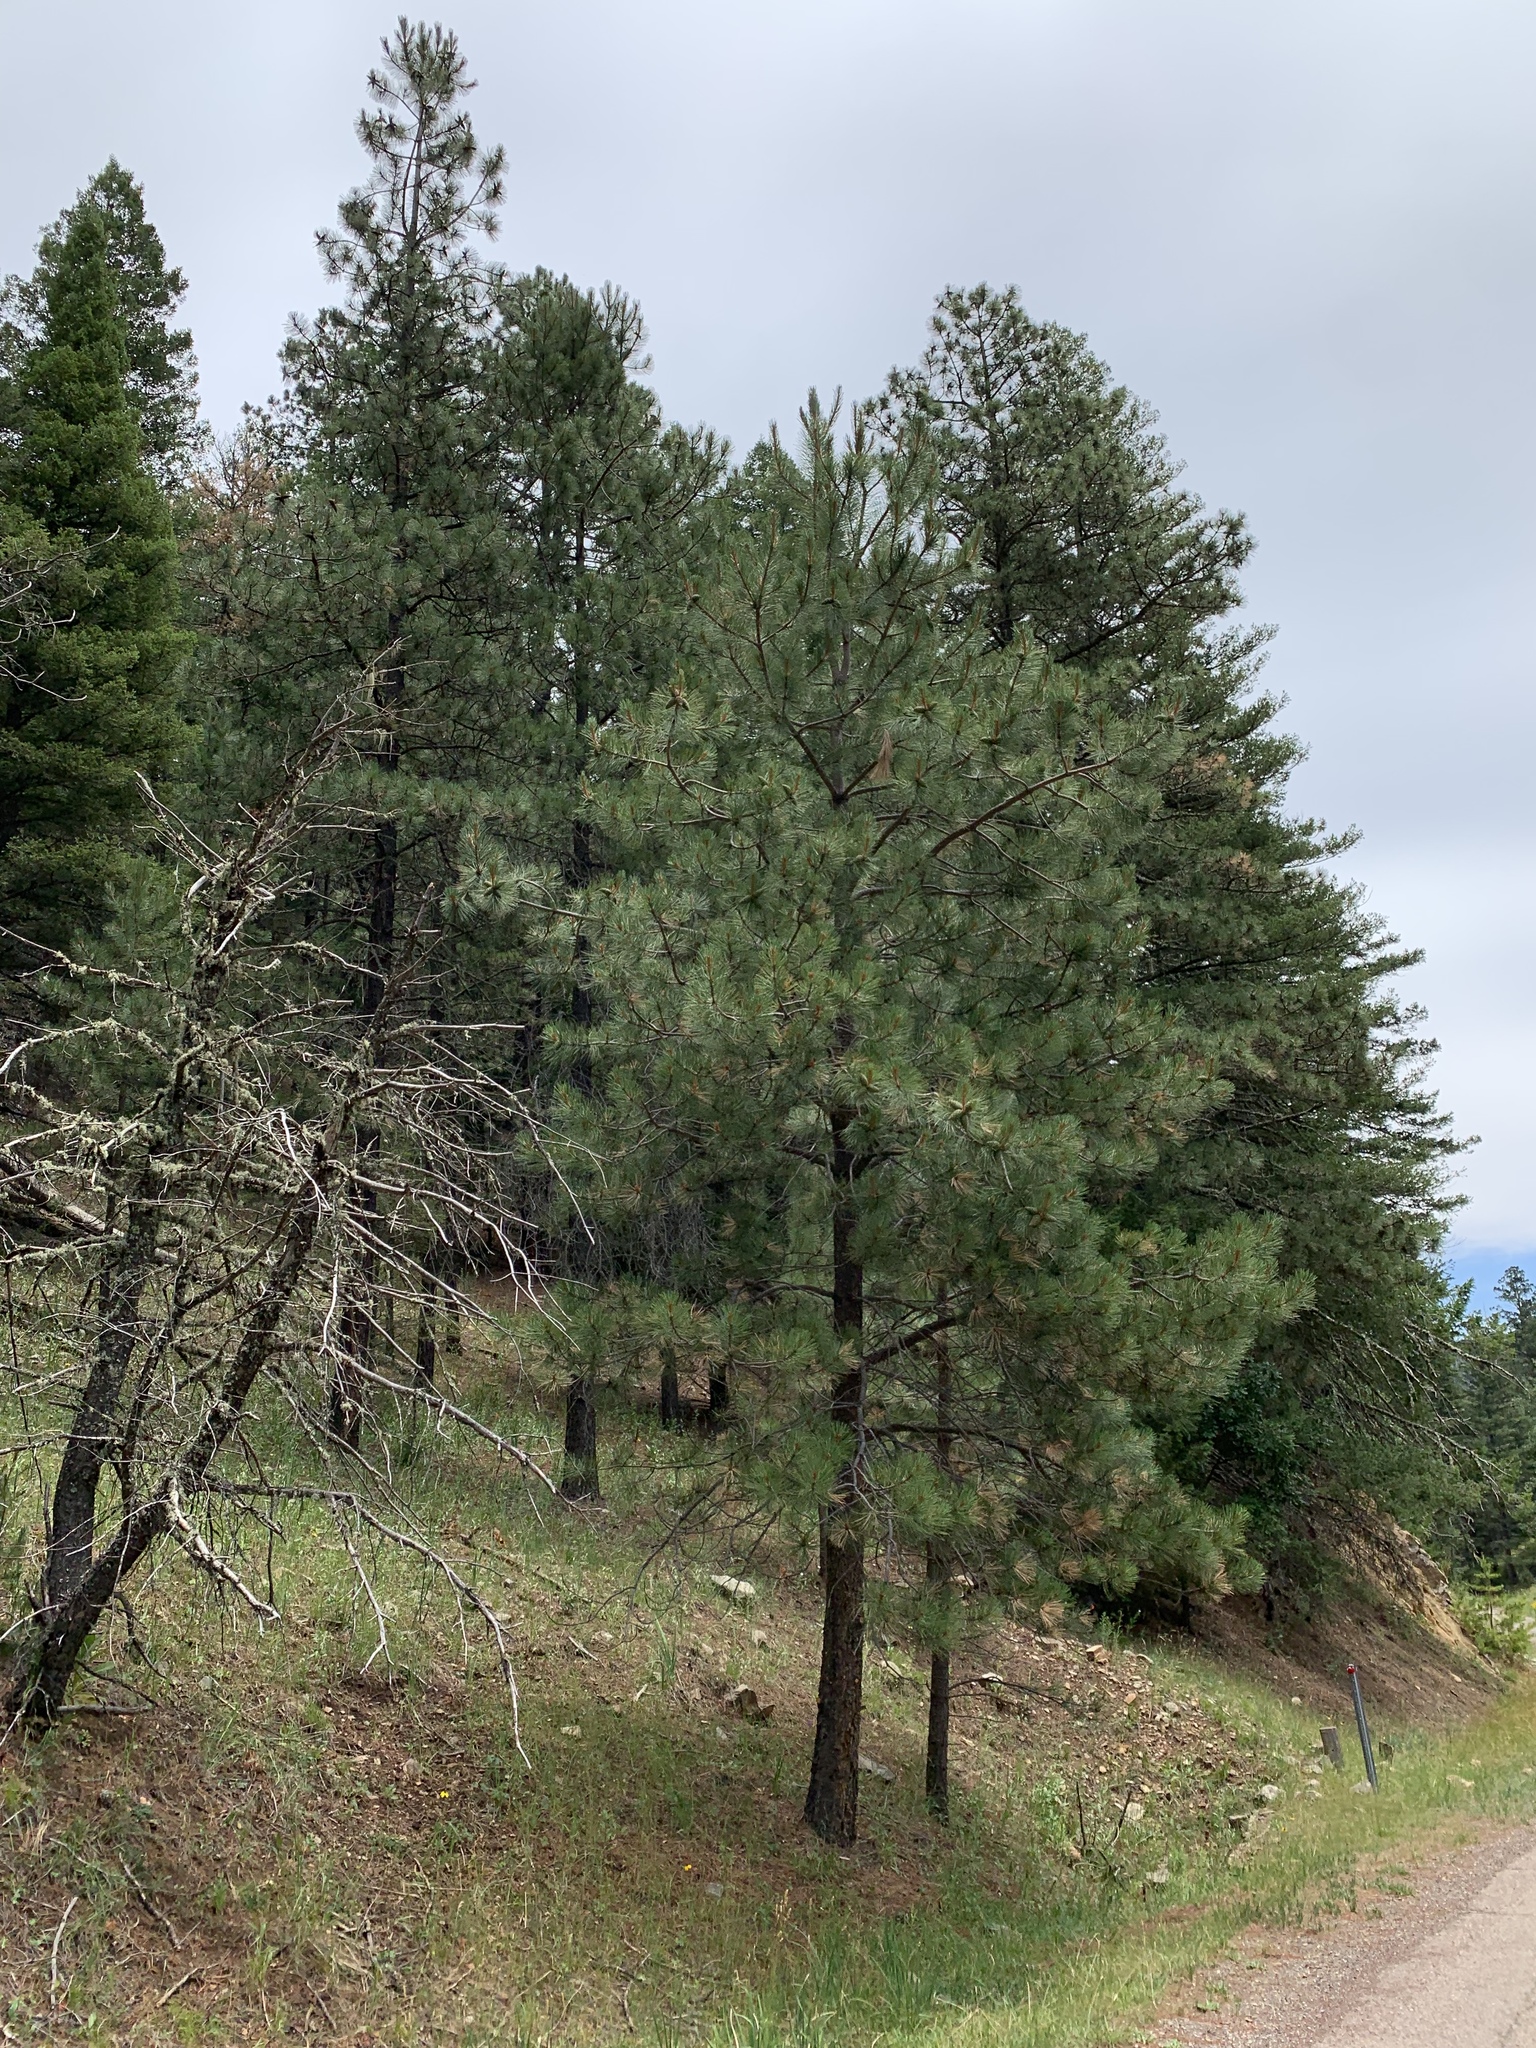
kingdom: Plantae
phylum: Tracheophyta
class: Pinopsida
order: Pinales
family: Pinaceae
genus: Pinus
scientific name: Pinus ponderosa
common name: Western yellow-pine
